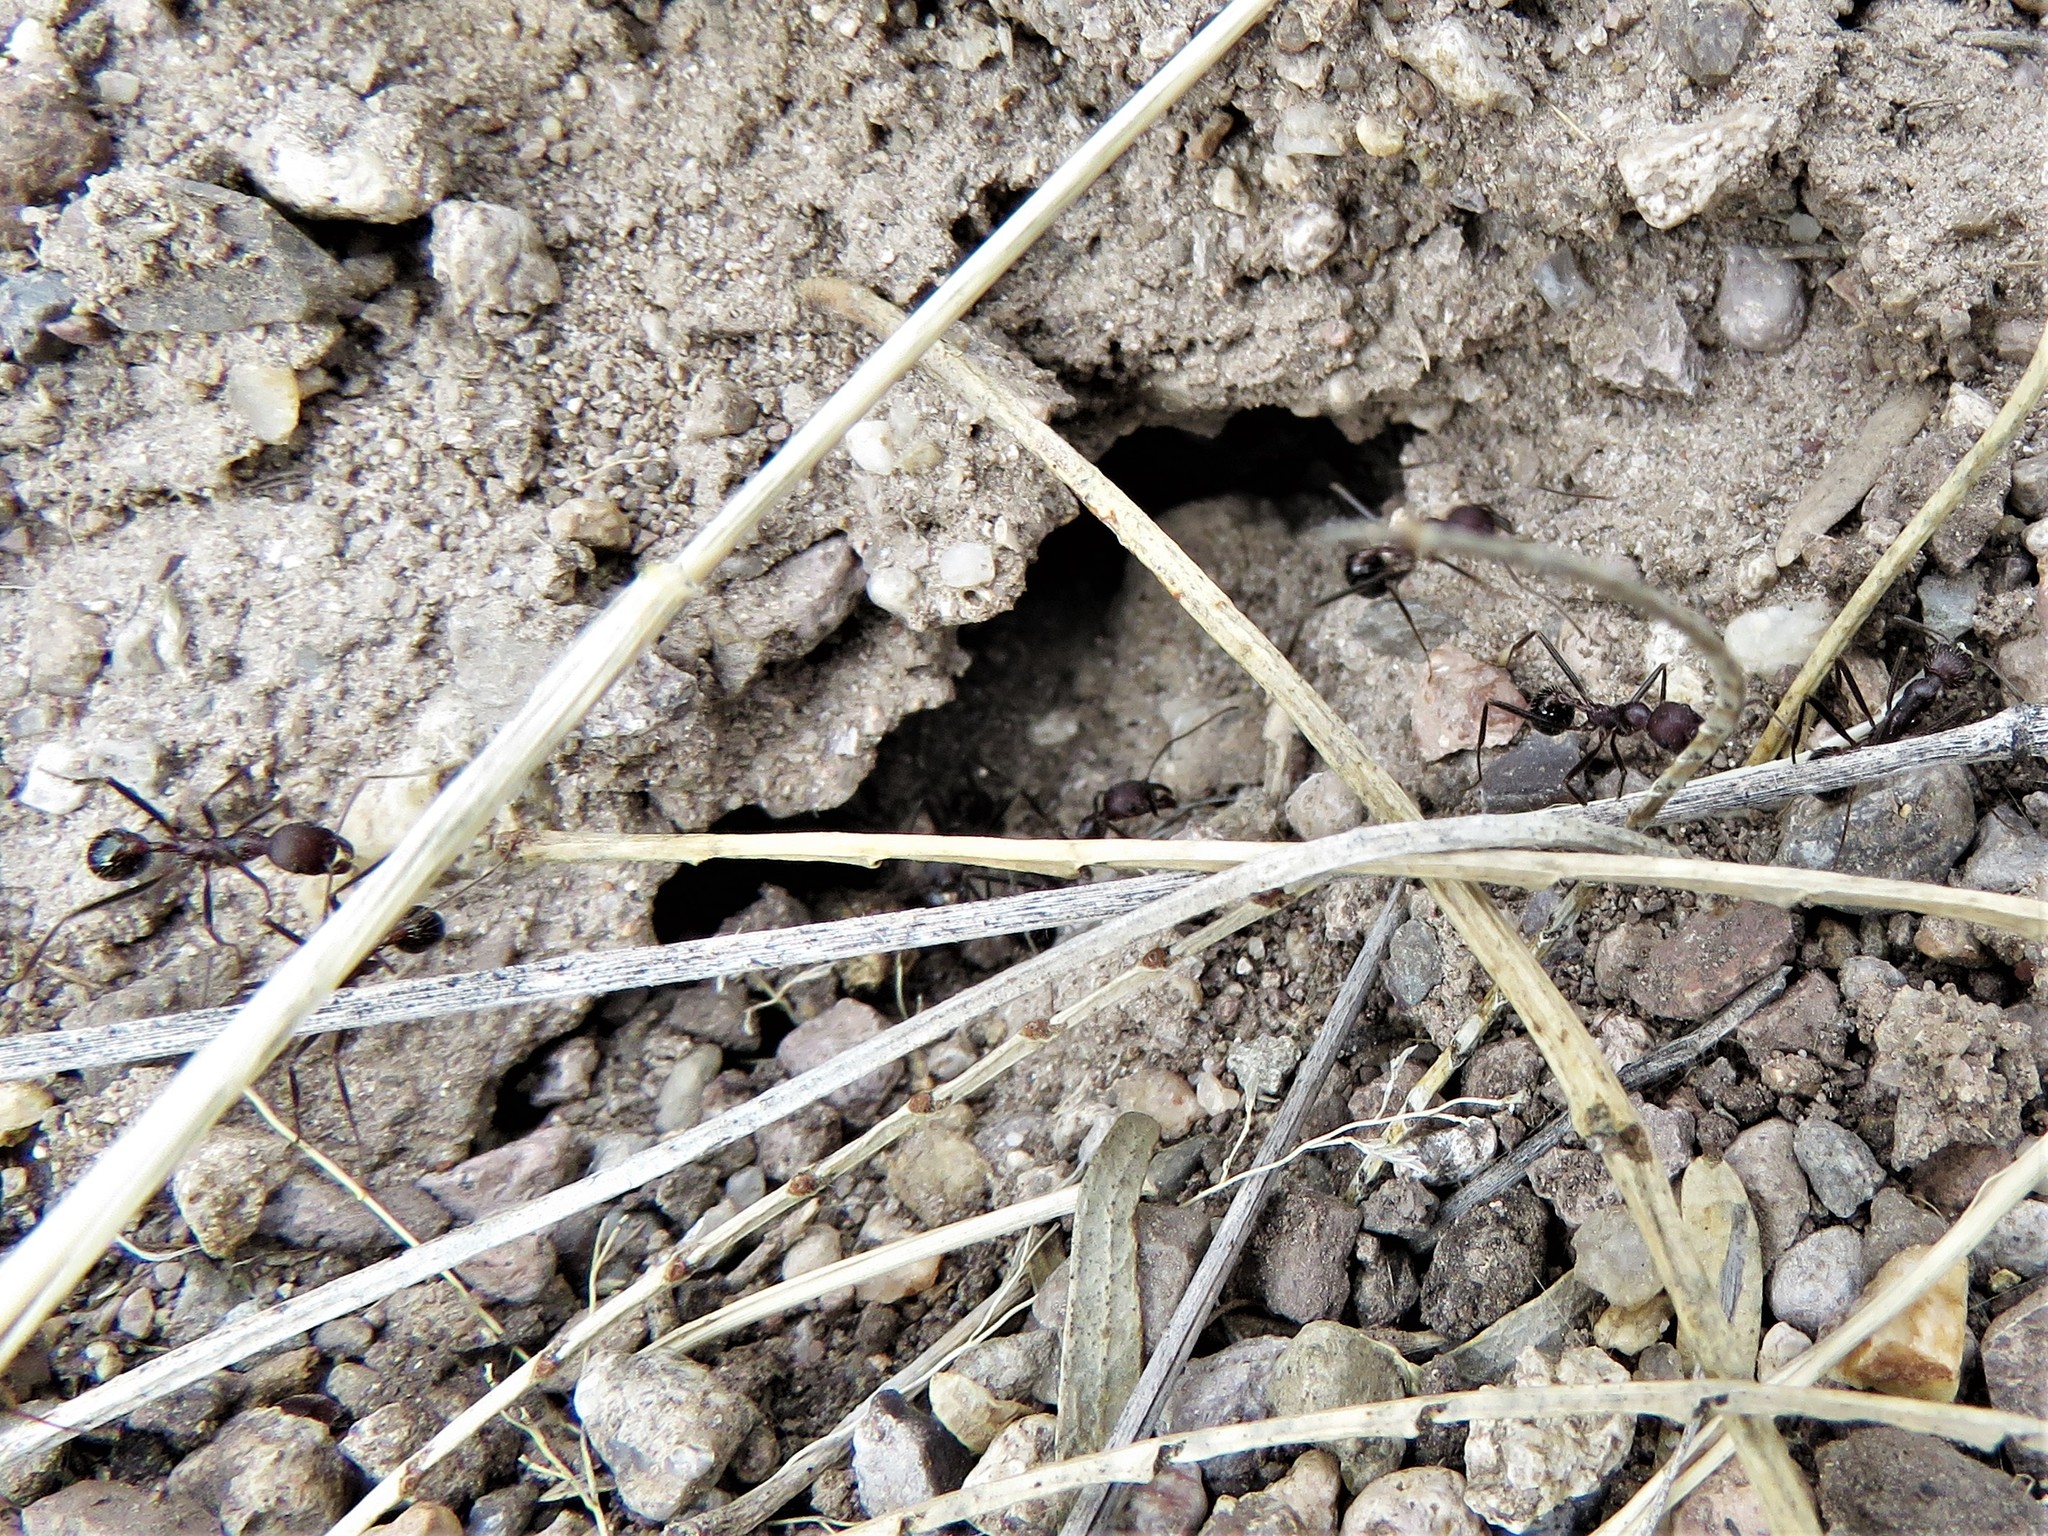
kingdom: Animalia
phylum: Arthropoda
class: Insecta
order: Hymenoptera
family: Formicidae
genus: Novomessor
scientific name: Novomessor albisetosa
